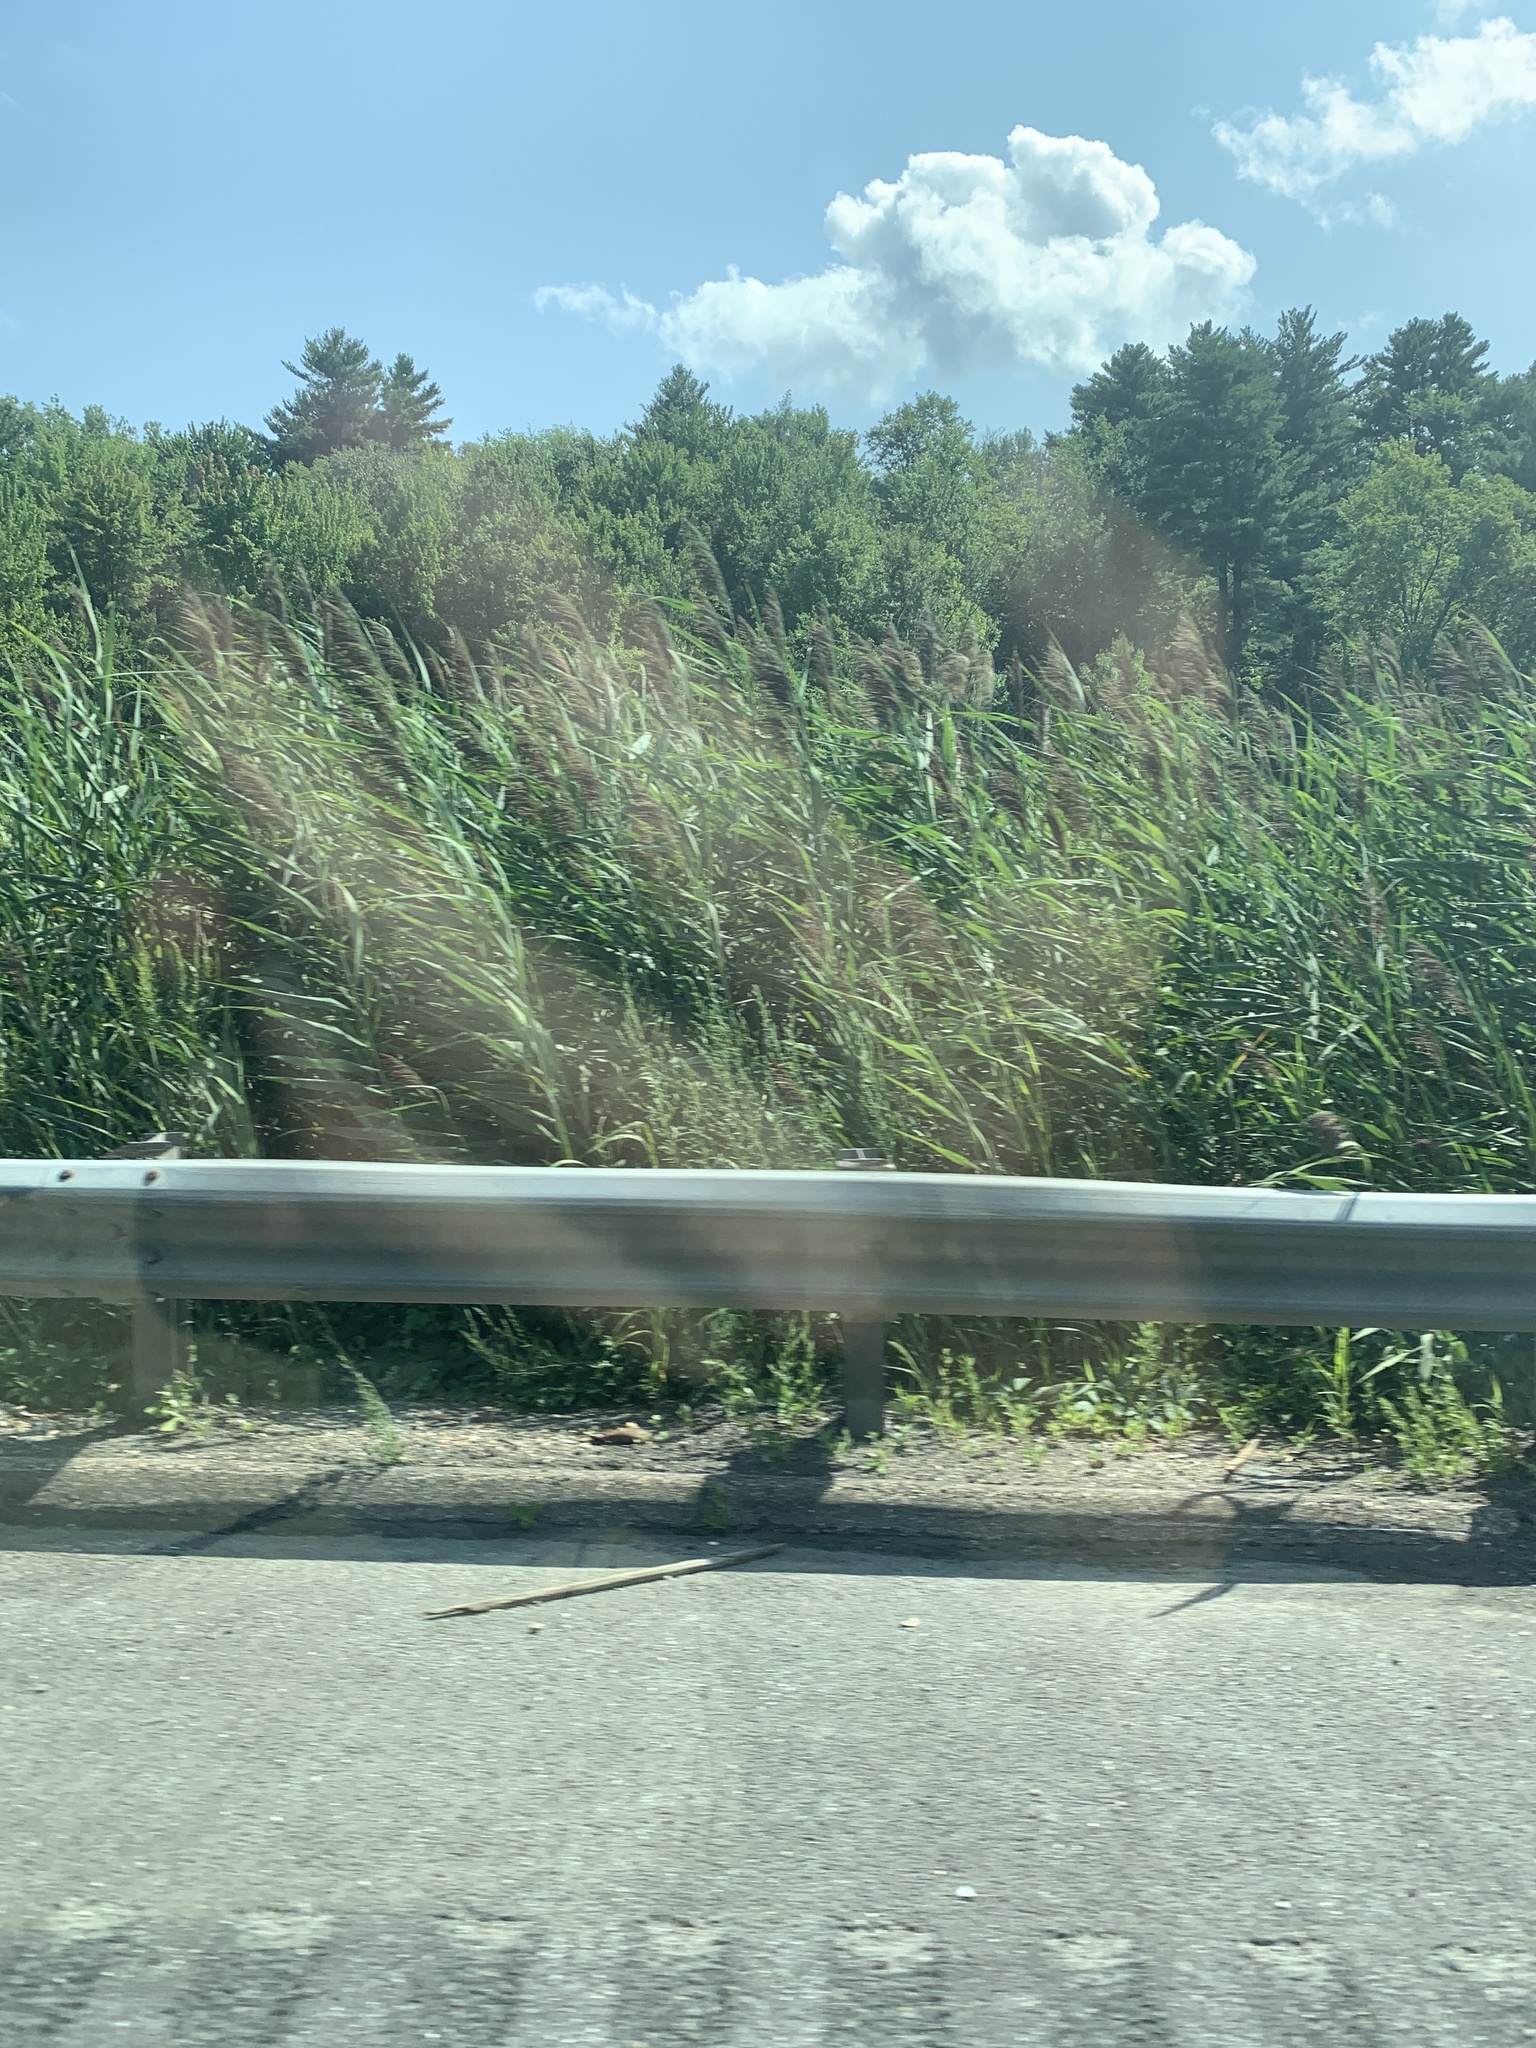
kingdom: Plantae
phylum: Tracheophyta
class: Liliopsida
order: Poales
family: Poaceae
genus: Phragmites
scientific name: Phragmites australis
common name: Common reed
